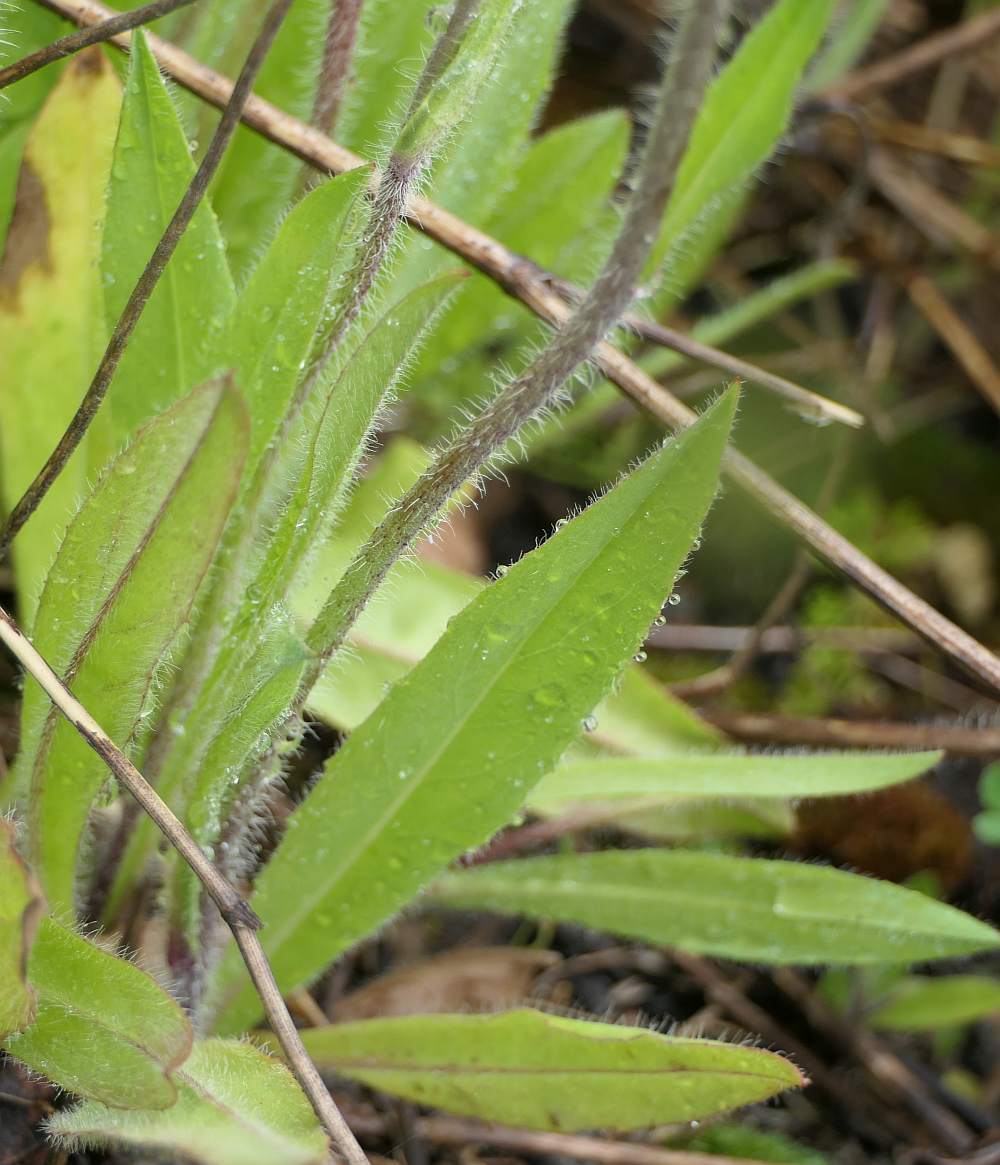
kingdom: Plantae
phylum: Tracheophyta
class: Magnoliopsida
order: Asterales
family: Asteraceae
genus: Pilosella
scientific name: Pilosella caespitosa
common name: Yellow fox-and-cubs
